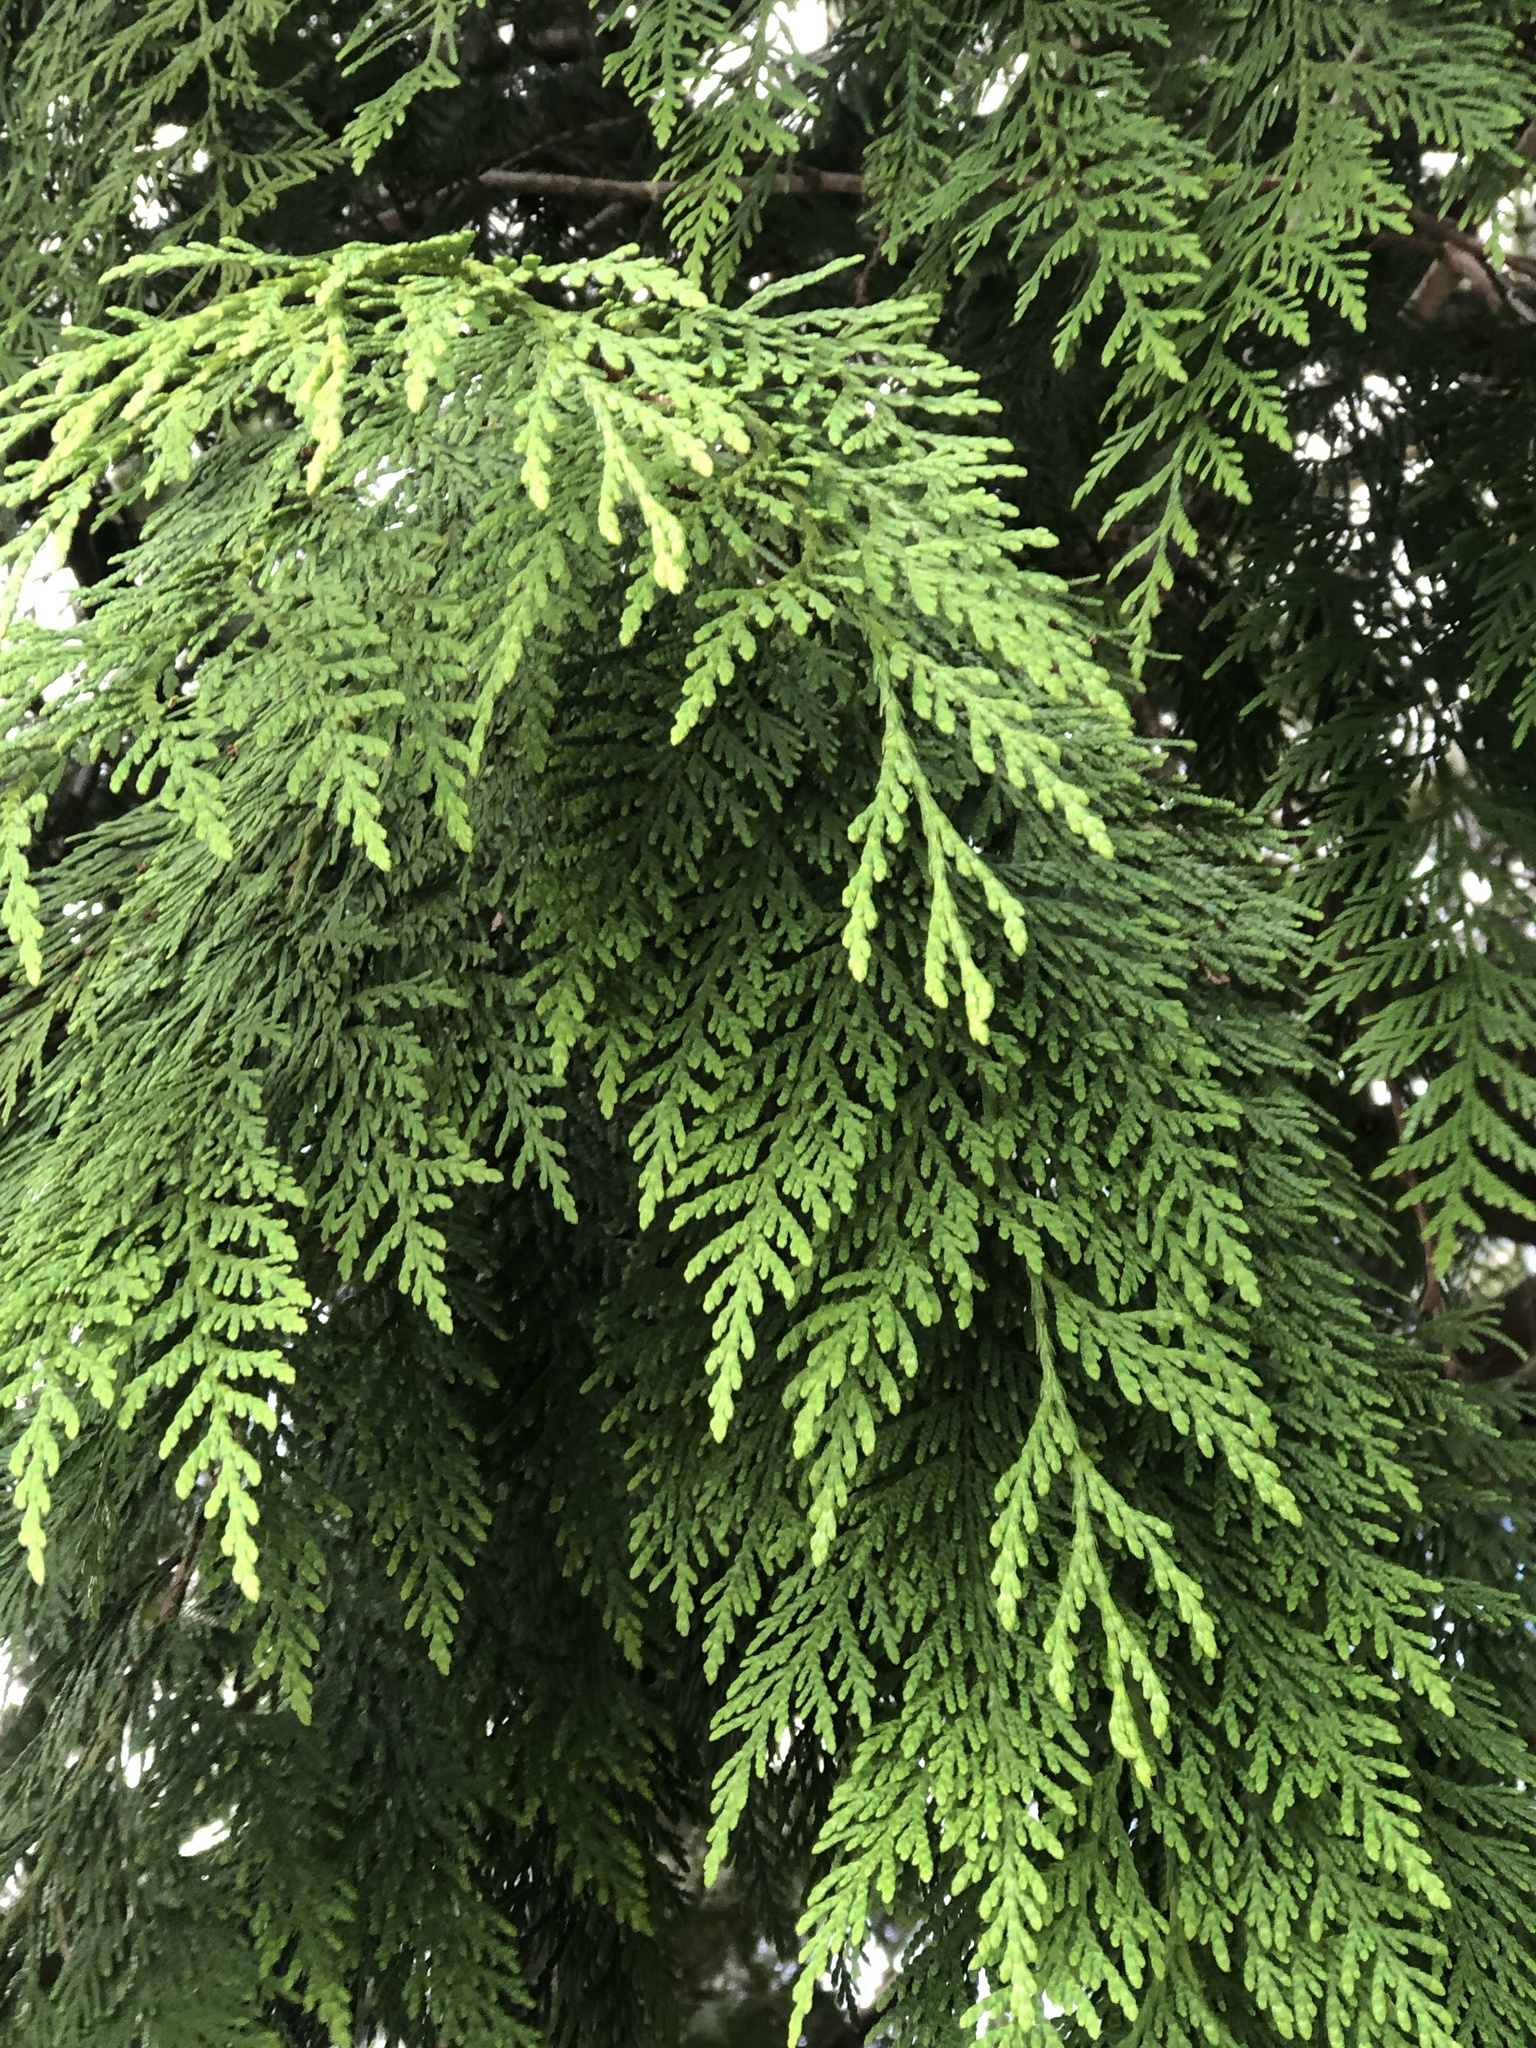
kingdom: Plantae
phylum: Tracheophyta
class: Pinopsida
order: Pinales
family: Cupressaceae
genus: Thuja
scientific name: Thuja plicata
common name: Western red-cedar
